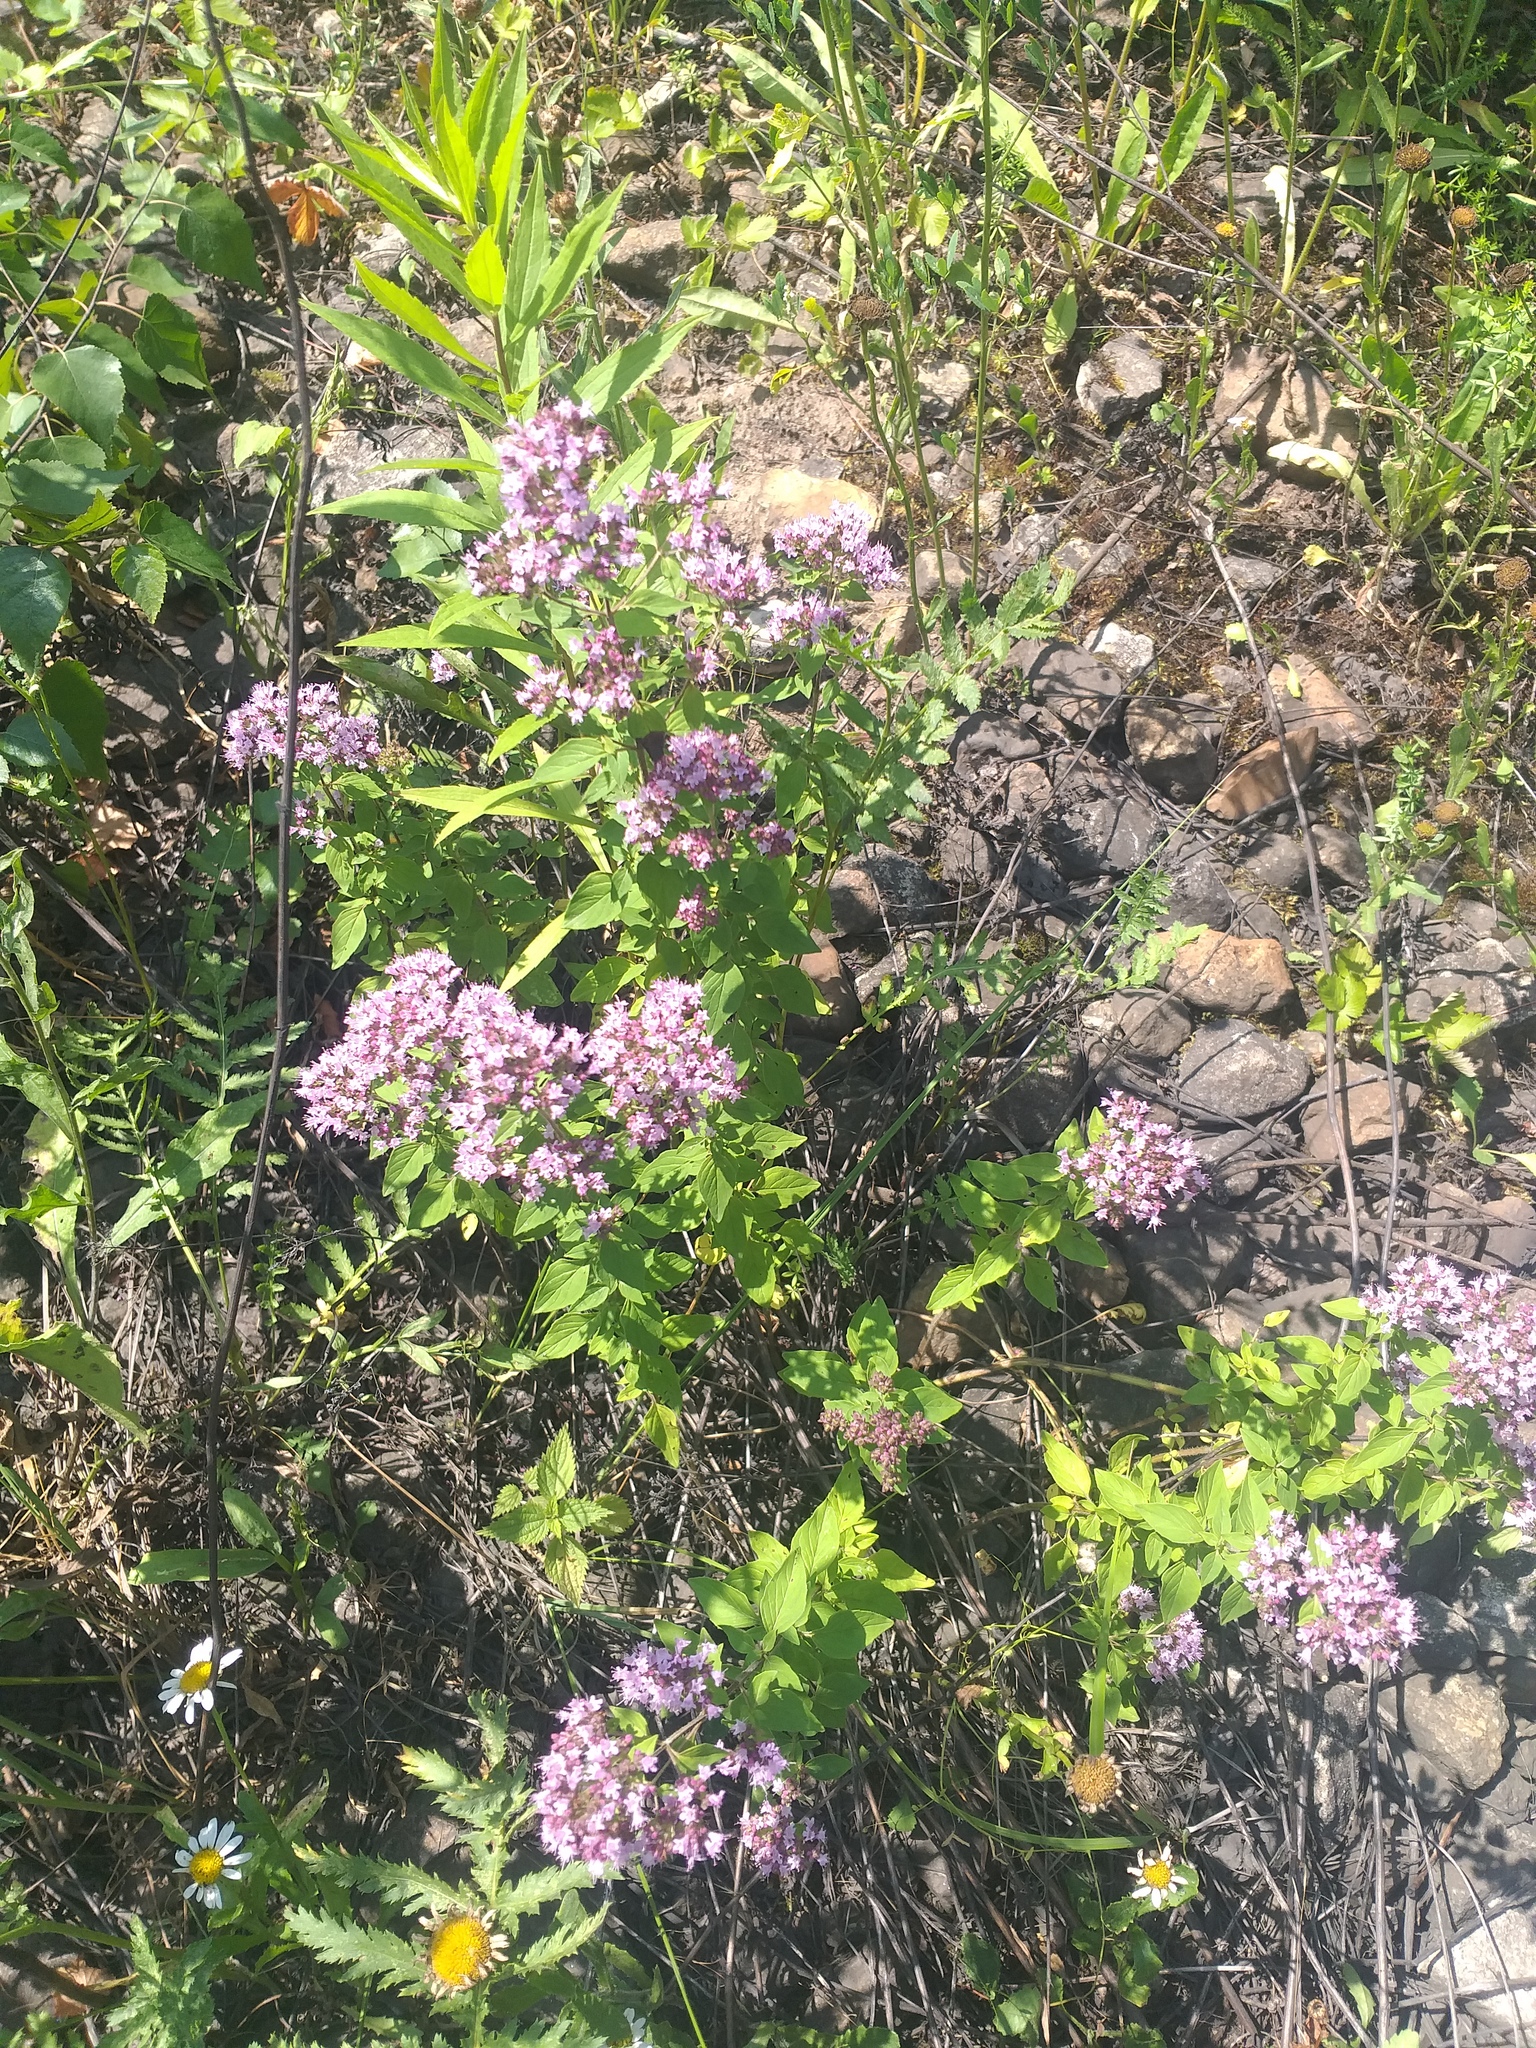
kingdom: Plantae
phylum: Tracheophyta
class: Magnoliopsida
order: Lamiales
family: Lamiaceae
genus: Origanum
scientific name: Origanum vulgare
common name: Wild marjoram
